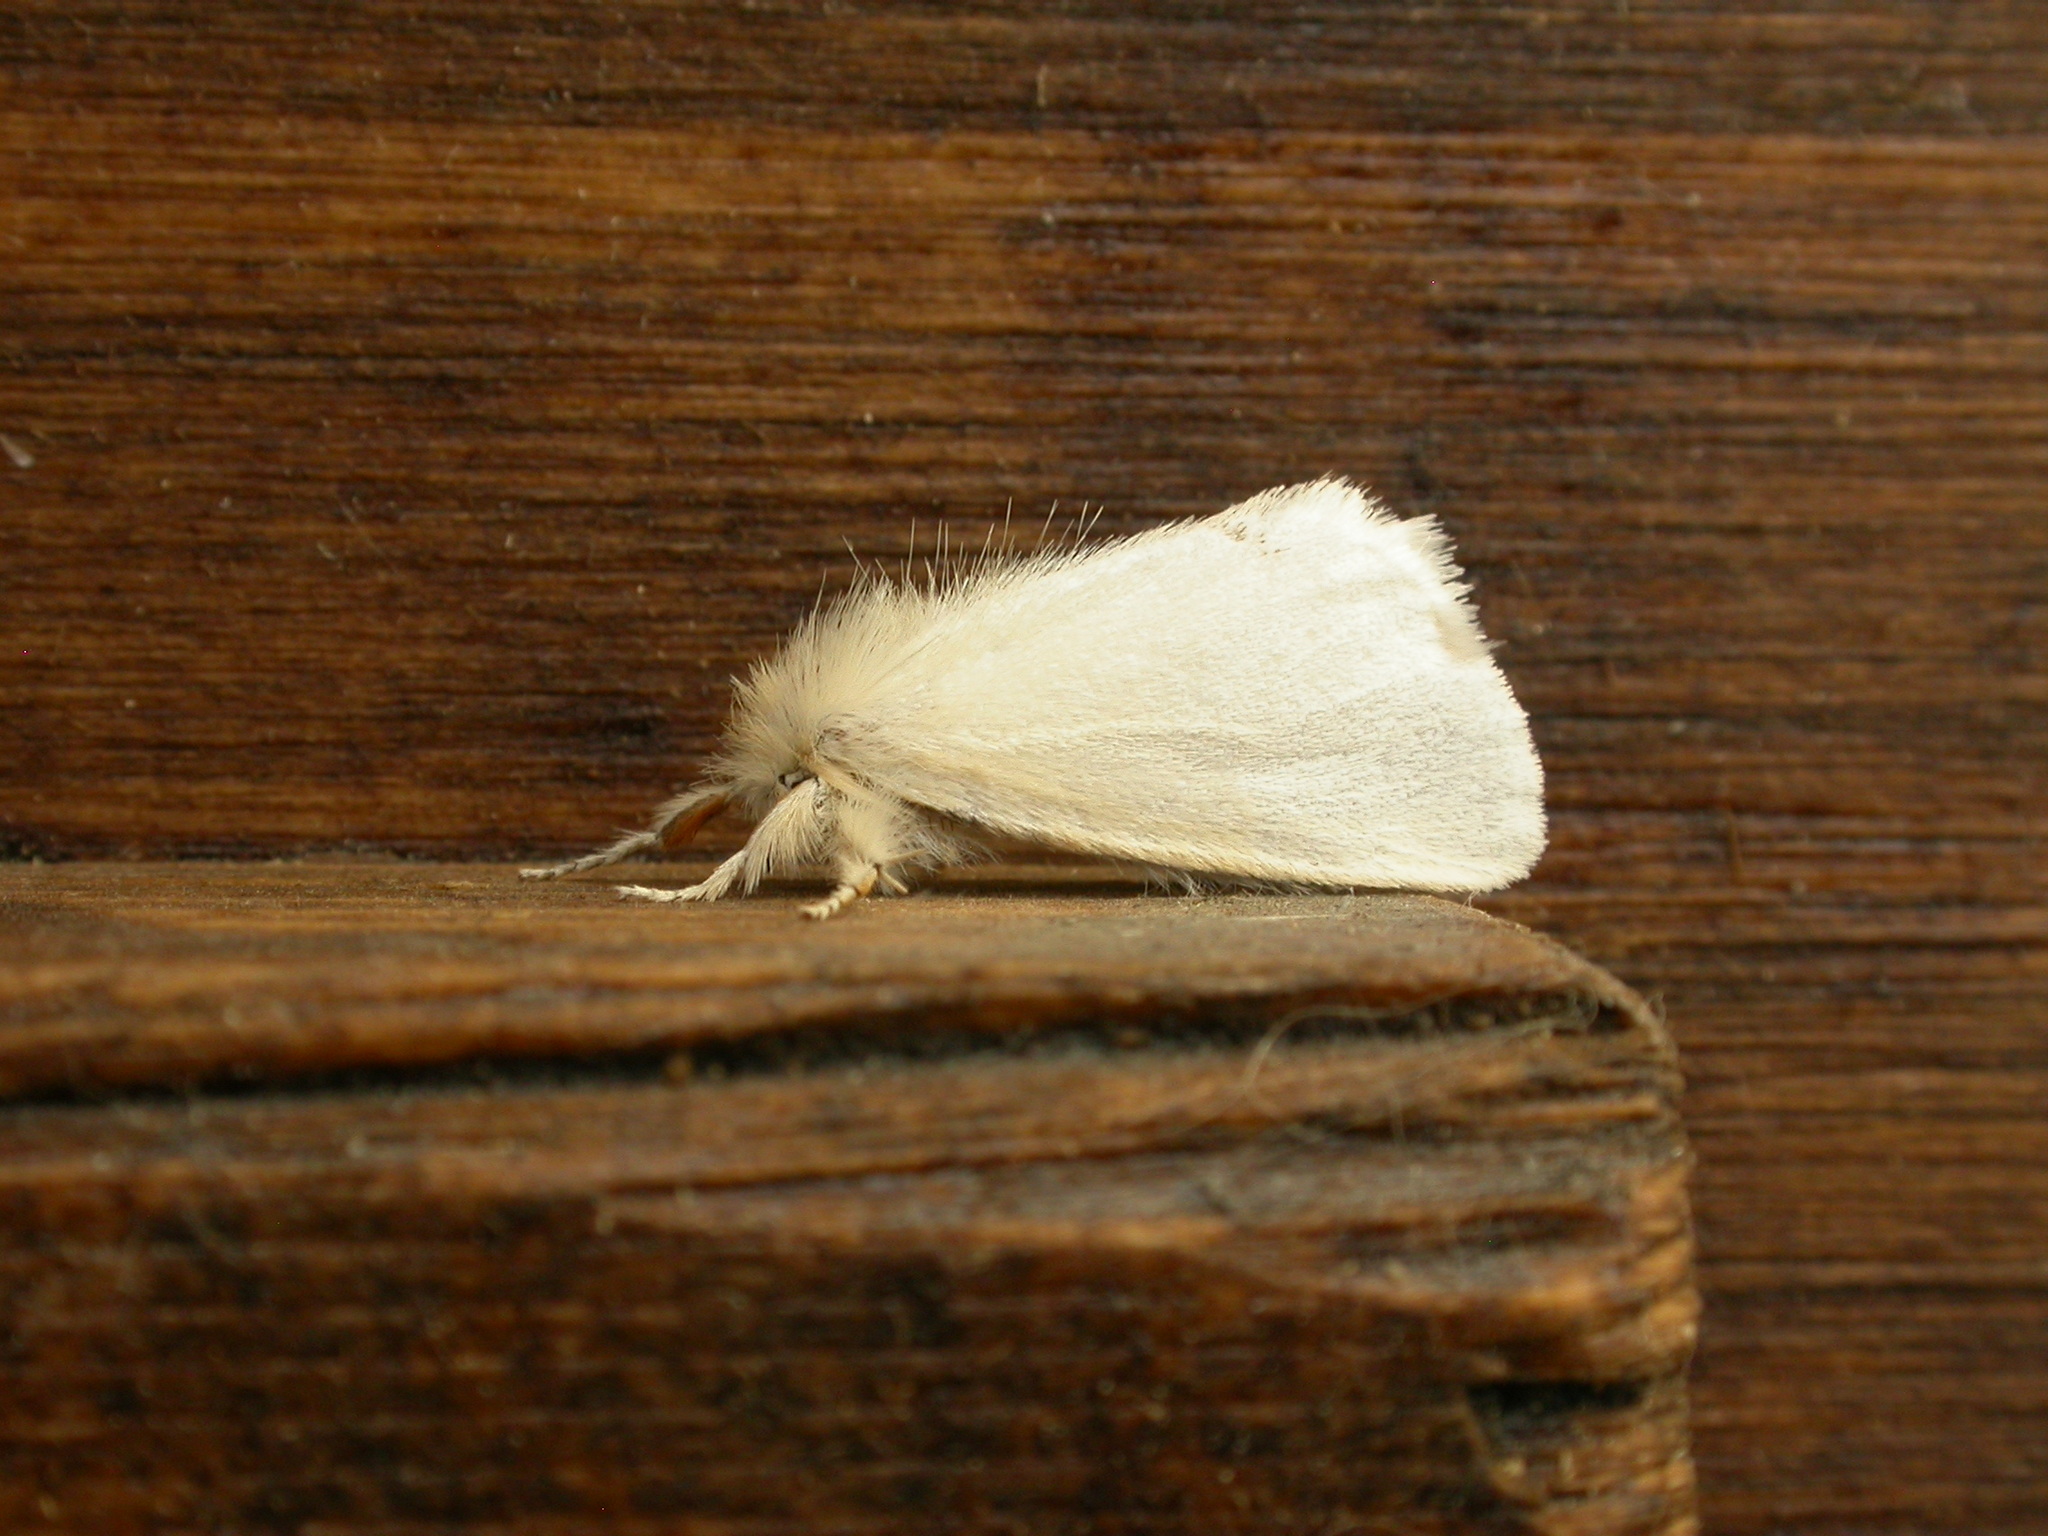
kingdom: Animalia
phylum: Arthropoda
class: Insecta
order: Lepidoptera
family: Erebidae
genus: Acyphas
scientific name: Acyphas chionitis
